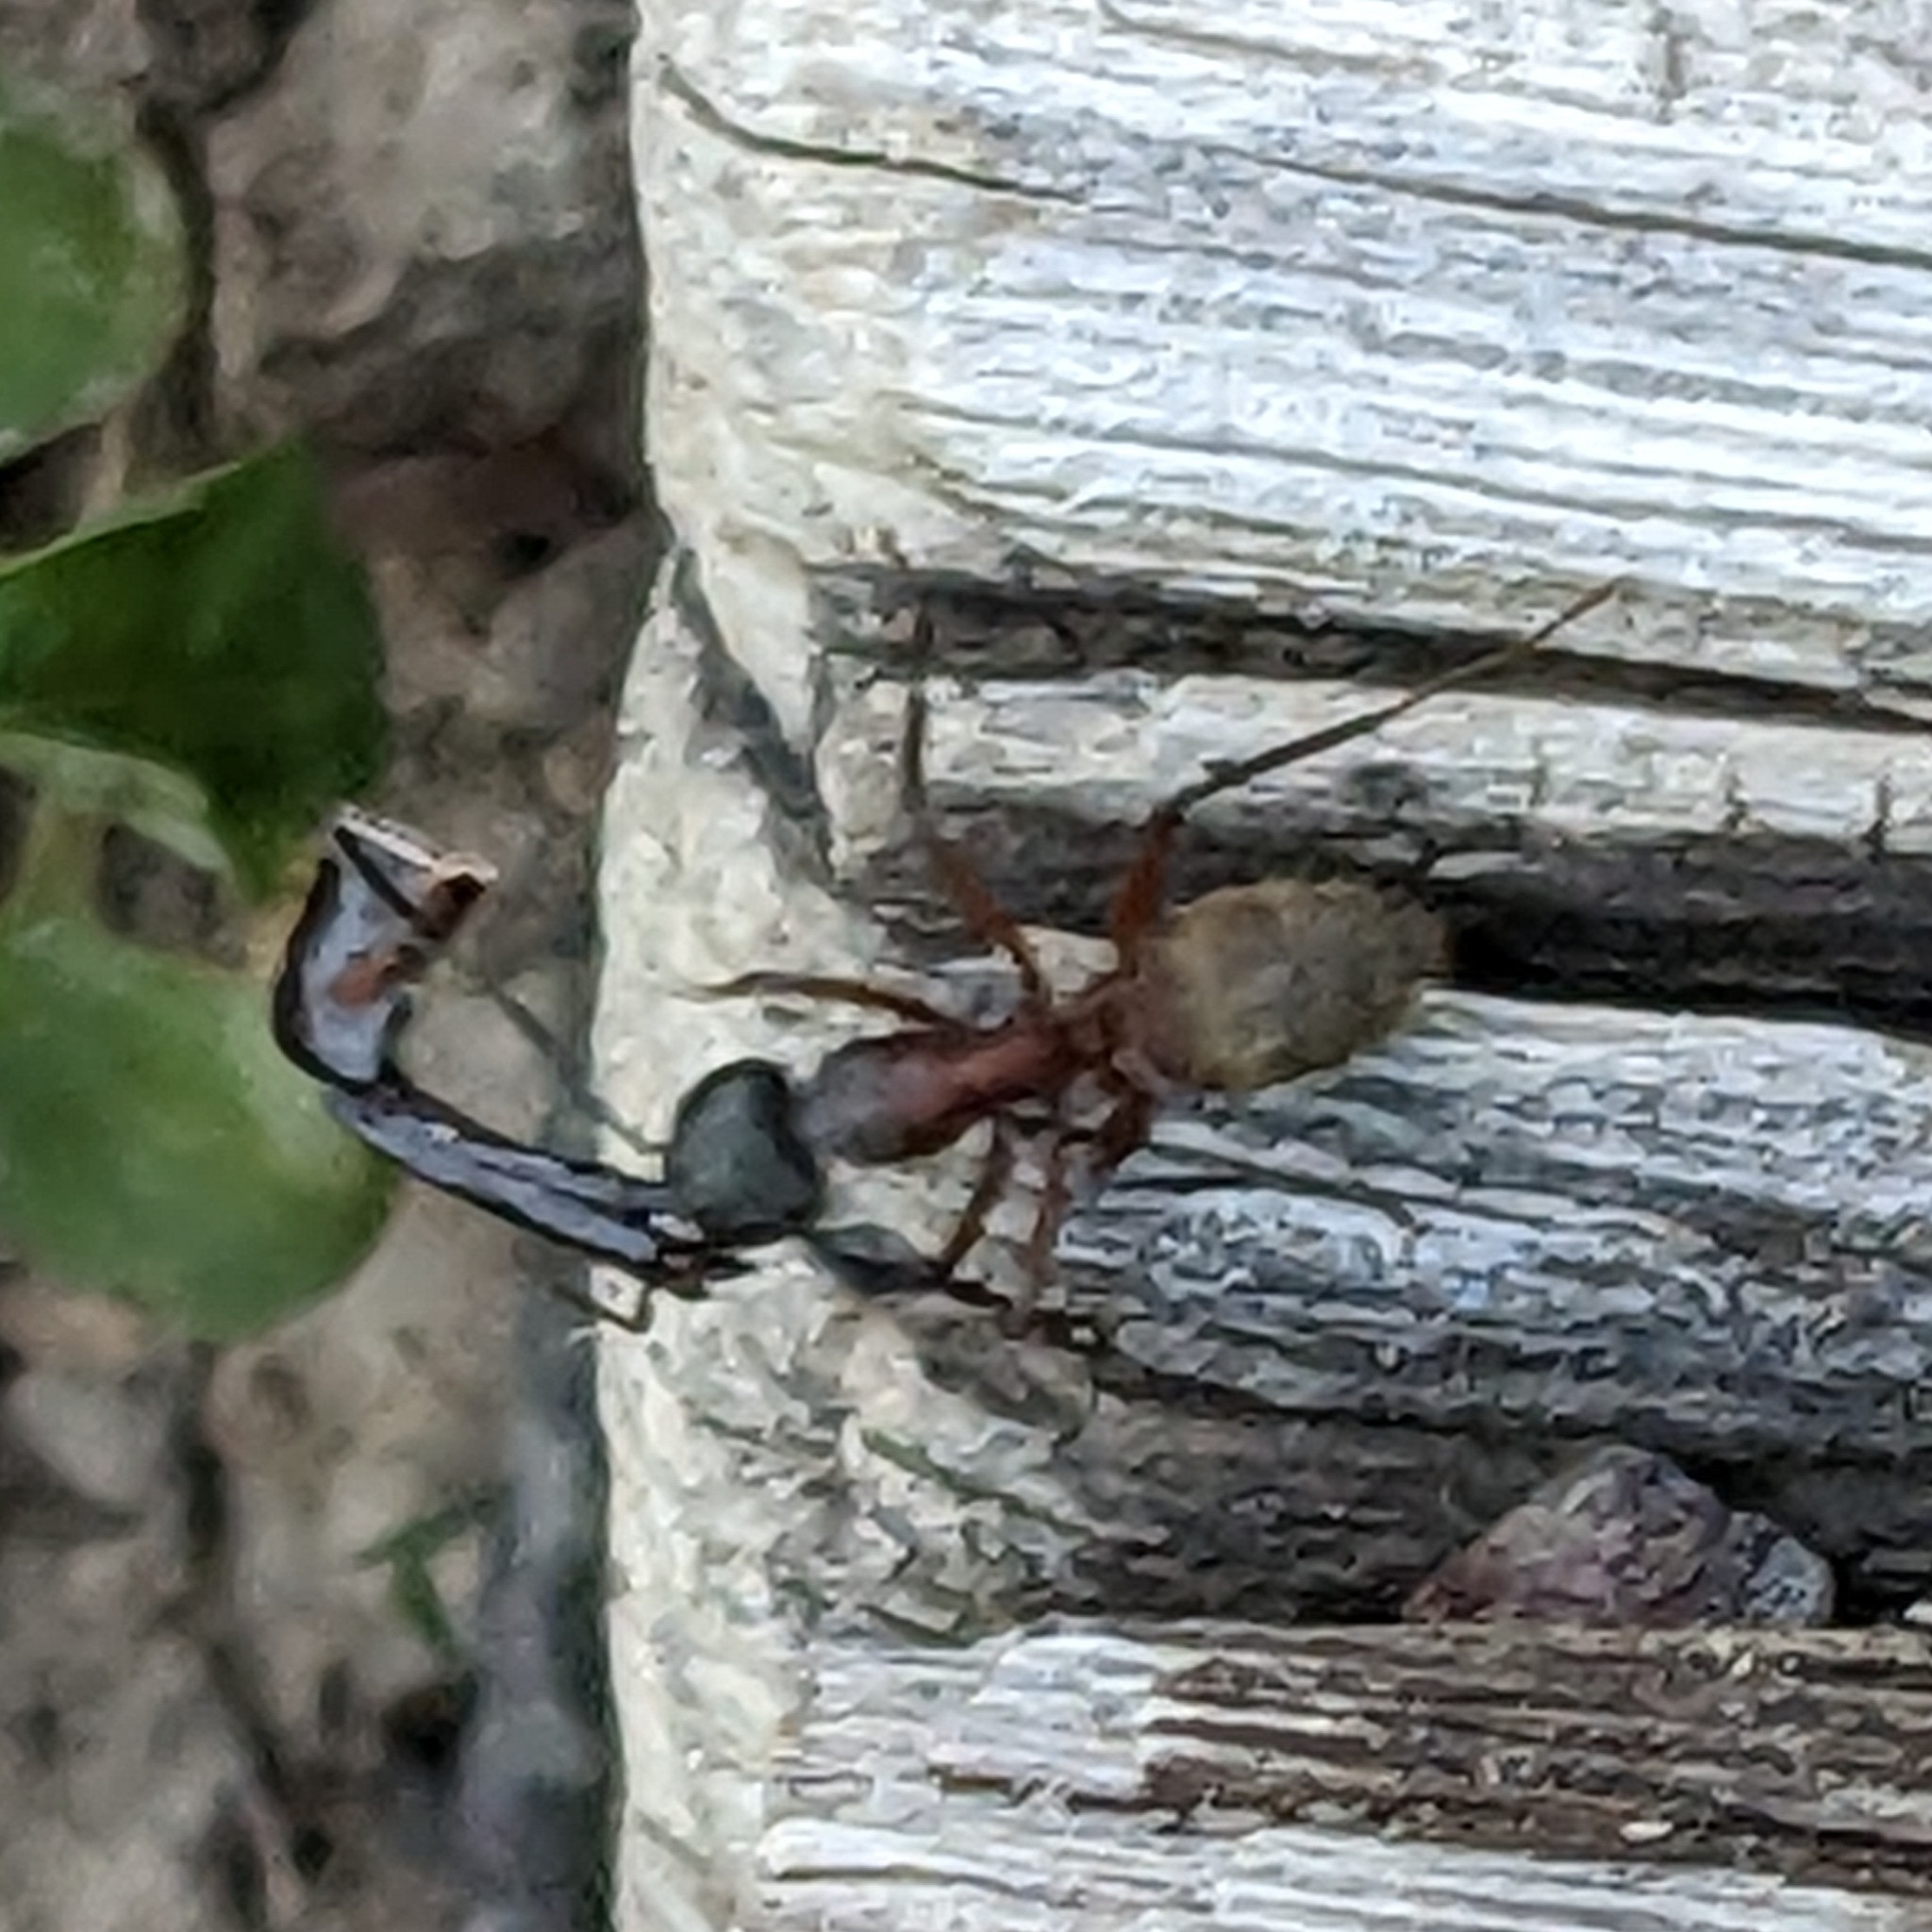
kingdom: Animalia
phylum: Arthropoda
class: Insecta
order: Hymenoptera
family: Formicidae
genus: Camponotus
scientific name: Camponotus chromaiodes
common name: Red carpenter ant
